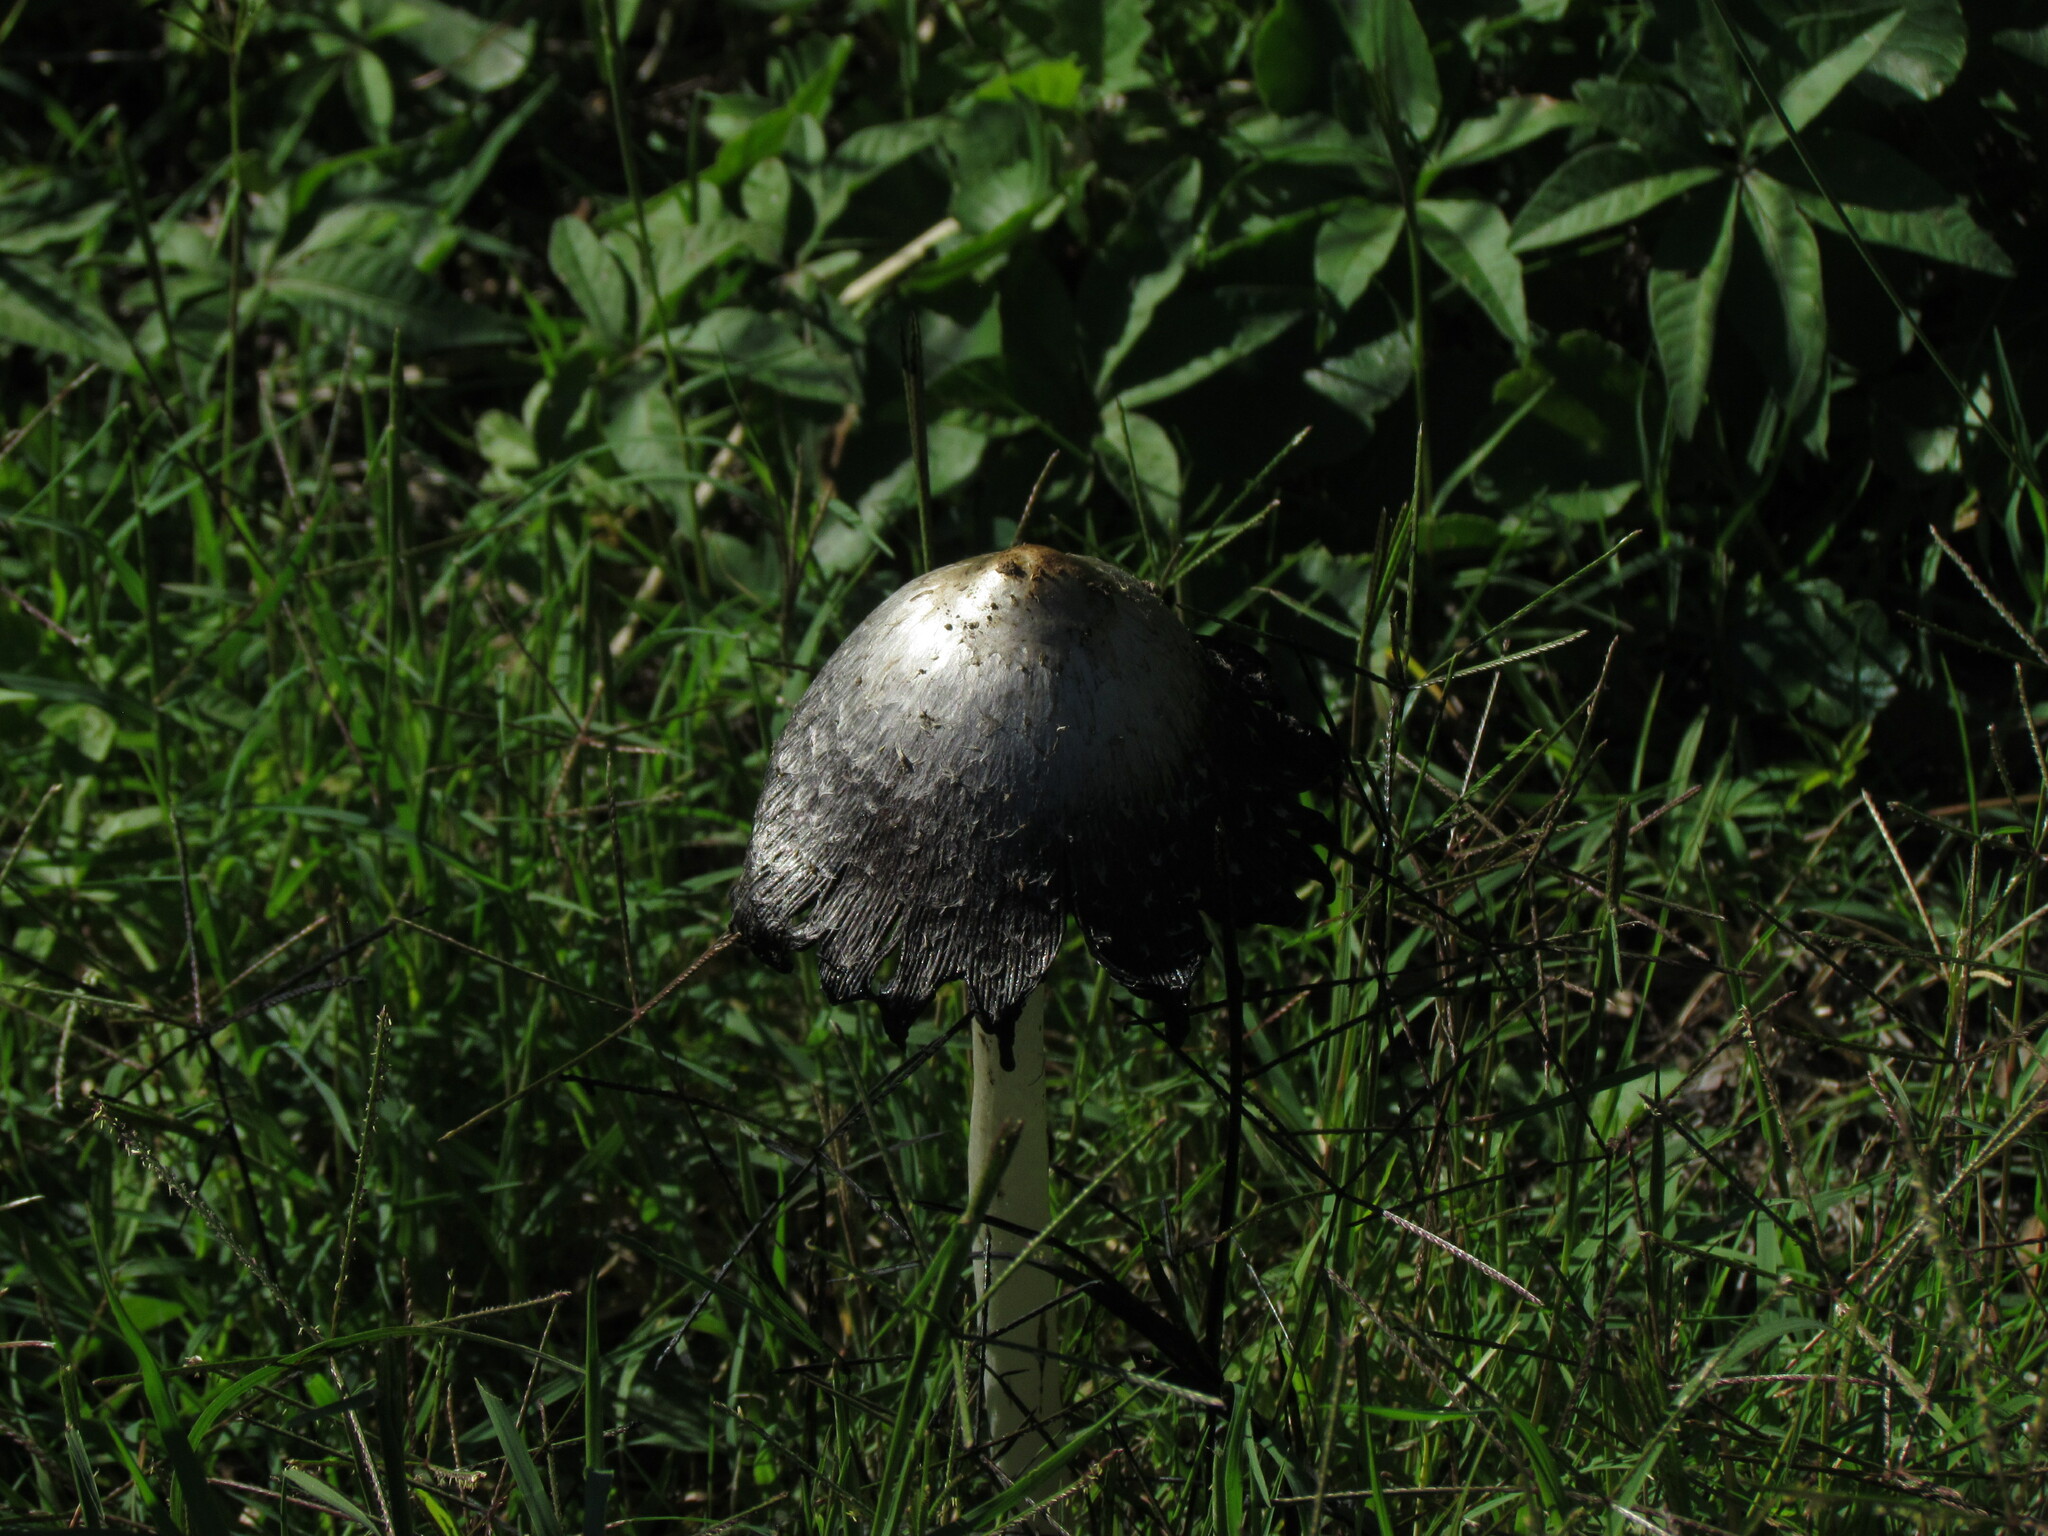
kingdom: Fungi
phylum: Basidiomycota
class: Agaricomycetes
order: Agaricales
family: Agaricaceae
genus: Coprinus
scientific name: Coprinus comatus
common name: Lawyer's wig
